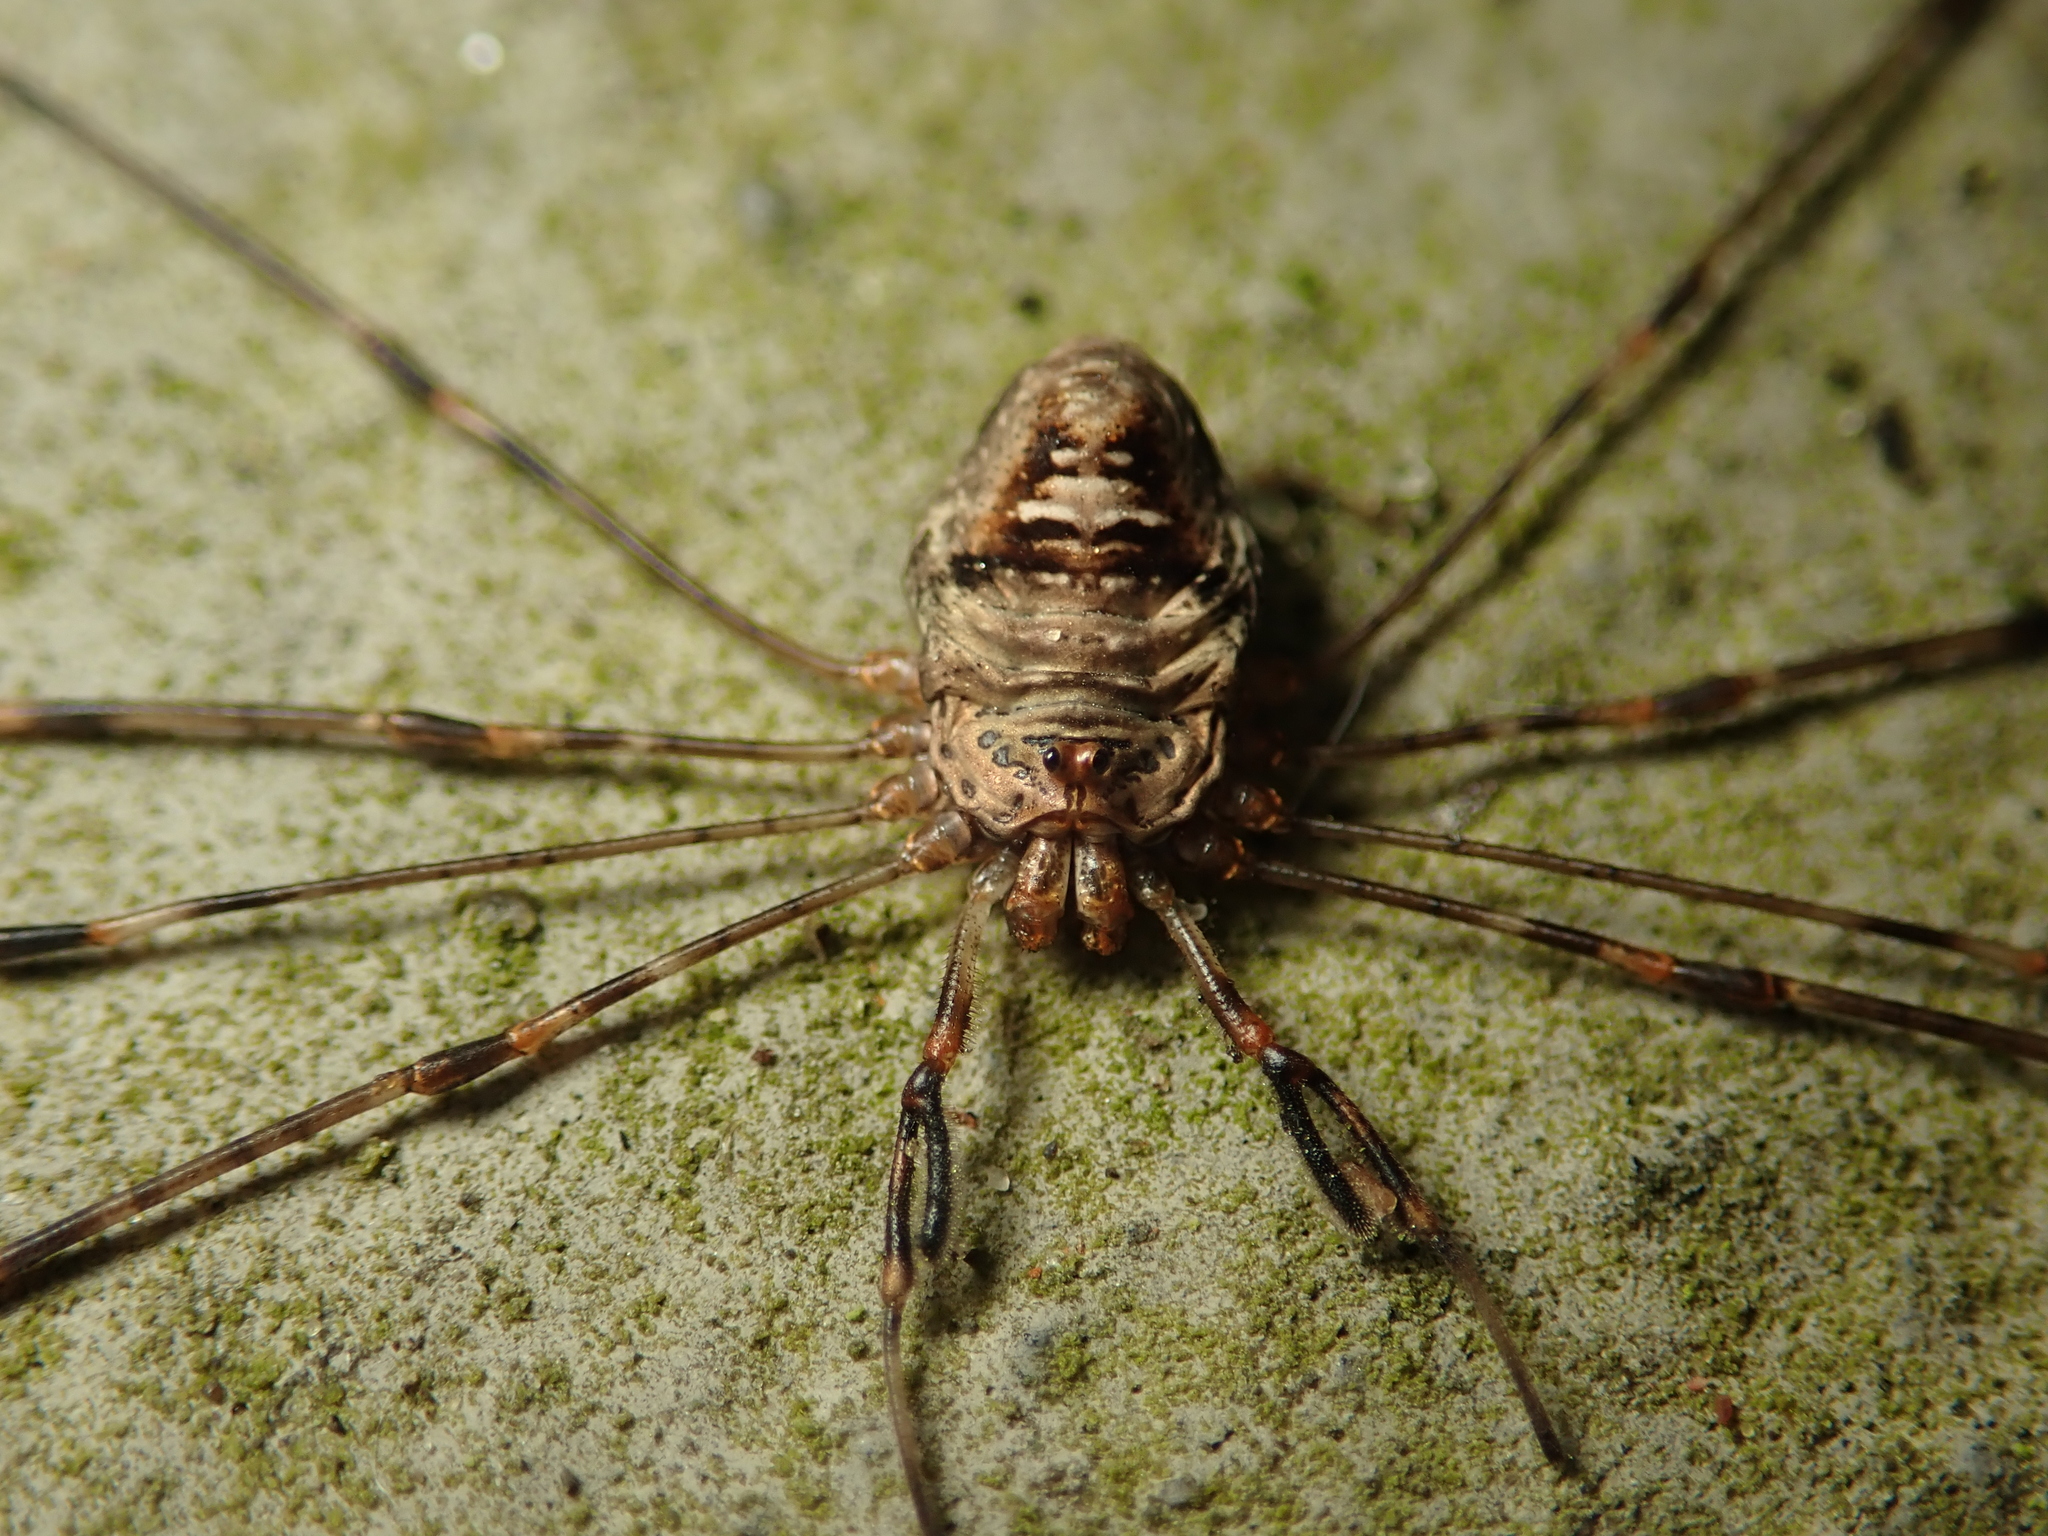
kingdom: Animalia
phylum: Arthropoda
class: Arachnida
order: Opiliones
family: Phalangiidae
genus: Dicranopalpus
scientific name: Dicranopalpus ramosus
